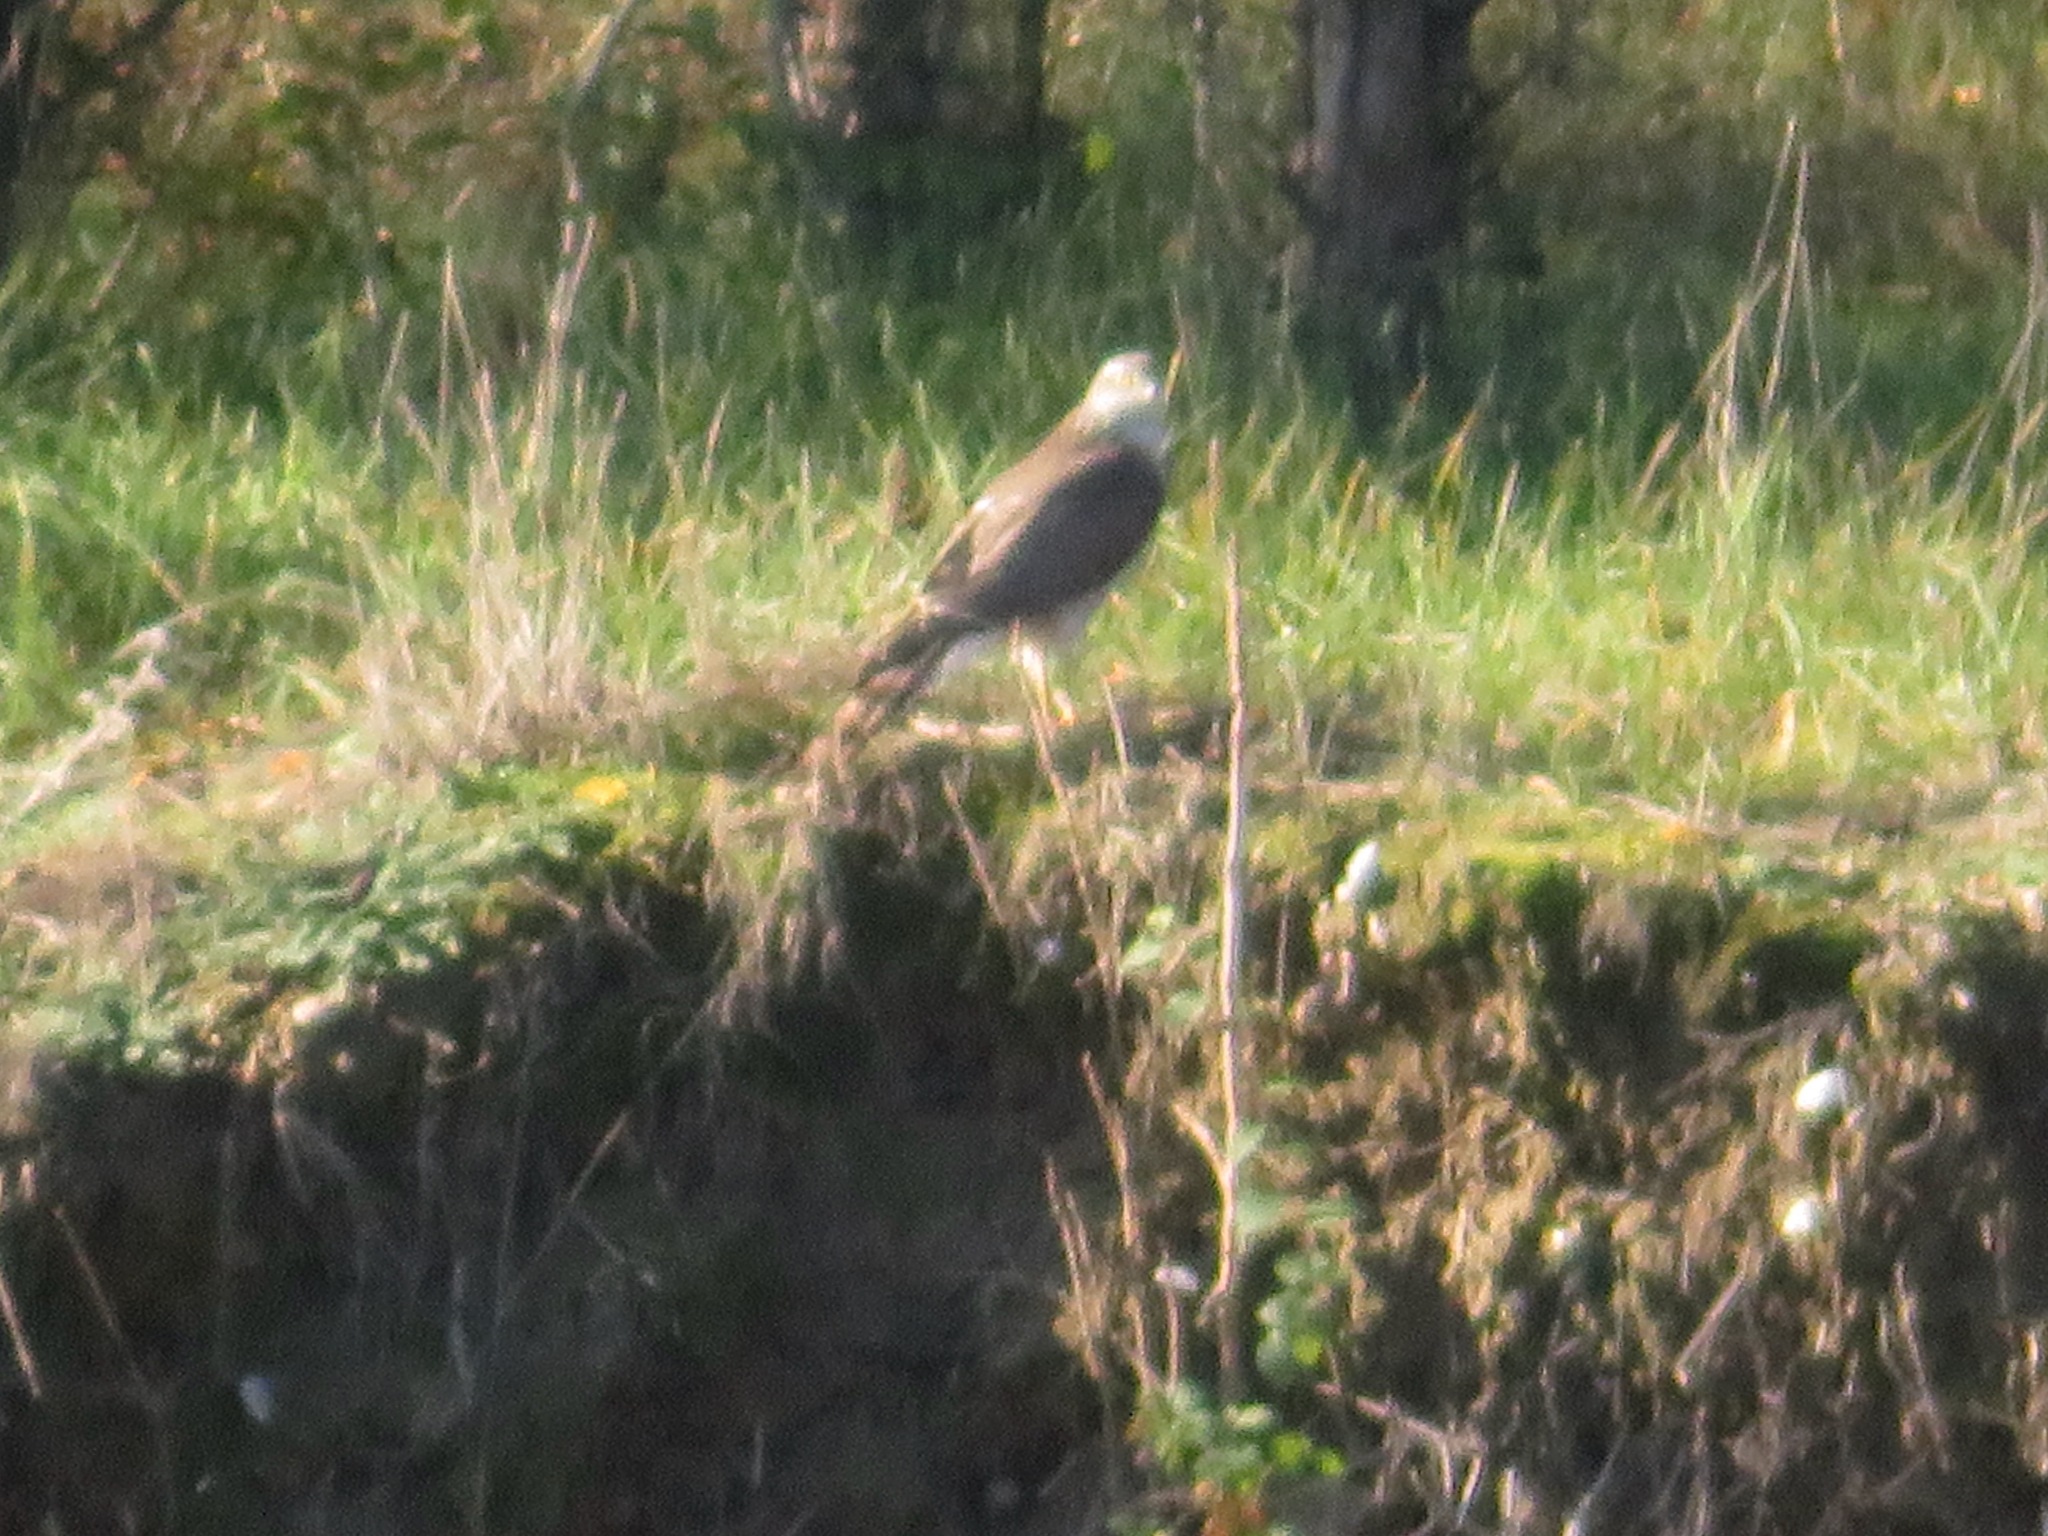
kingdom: Animalia
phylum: Chordata
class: Aves
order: Accipitriformes
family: Accipitridae
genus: Accipiter
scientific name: Accipiter nisus
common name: Eurasian sparrowhawk
